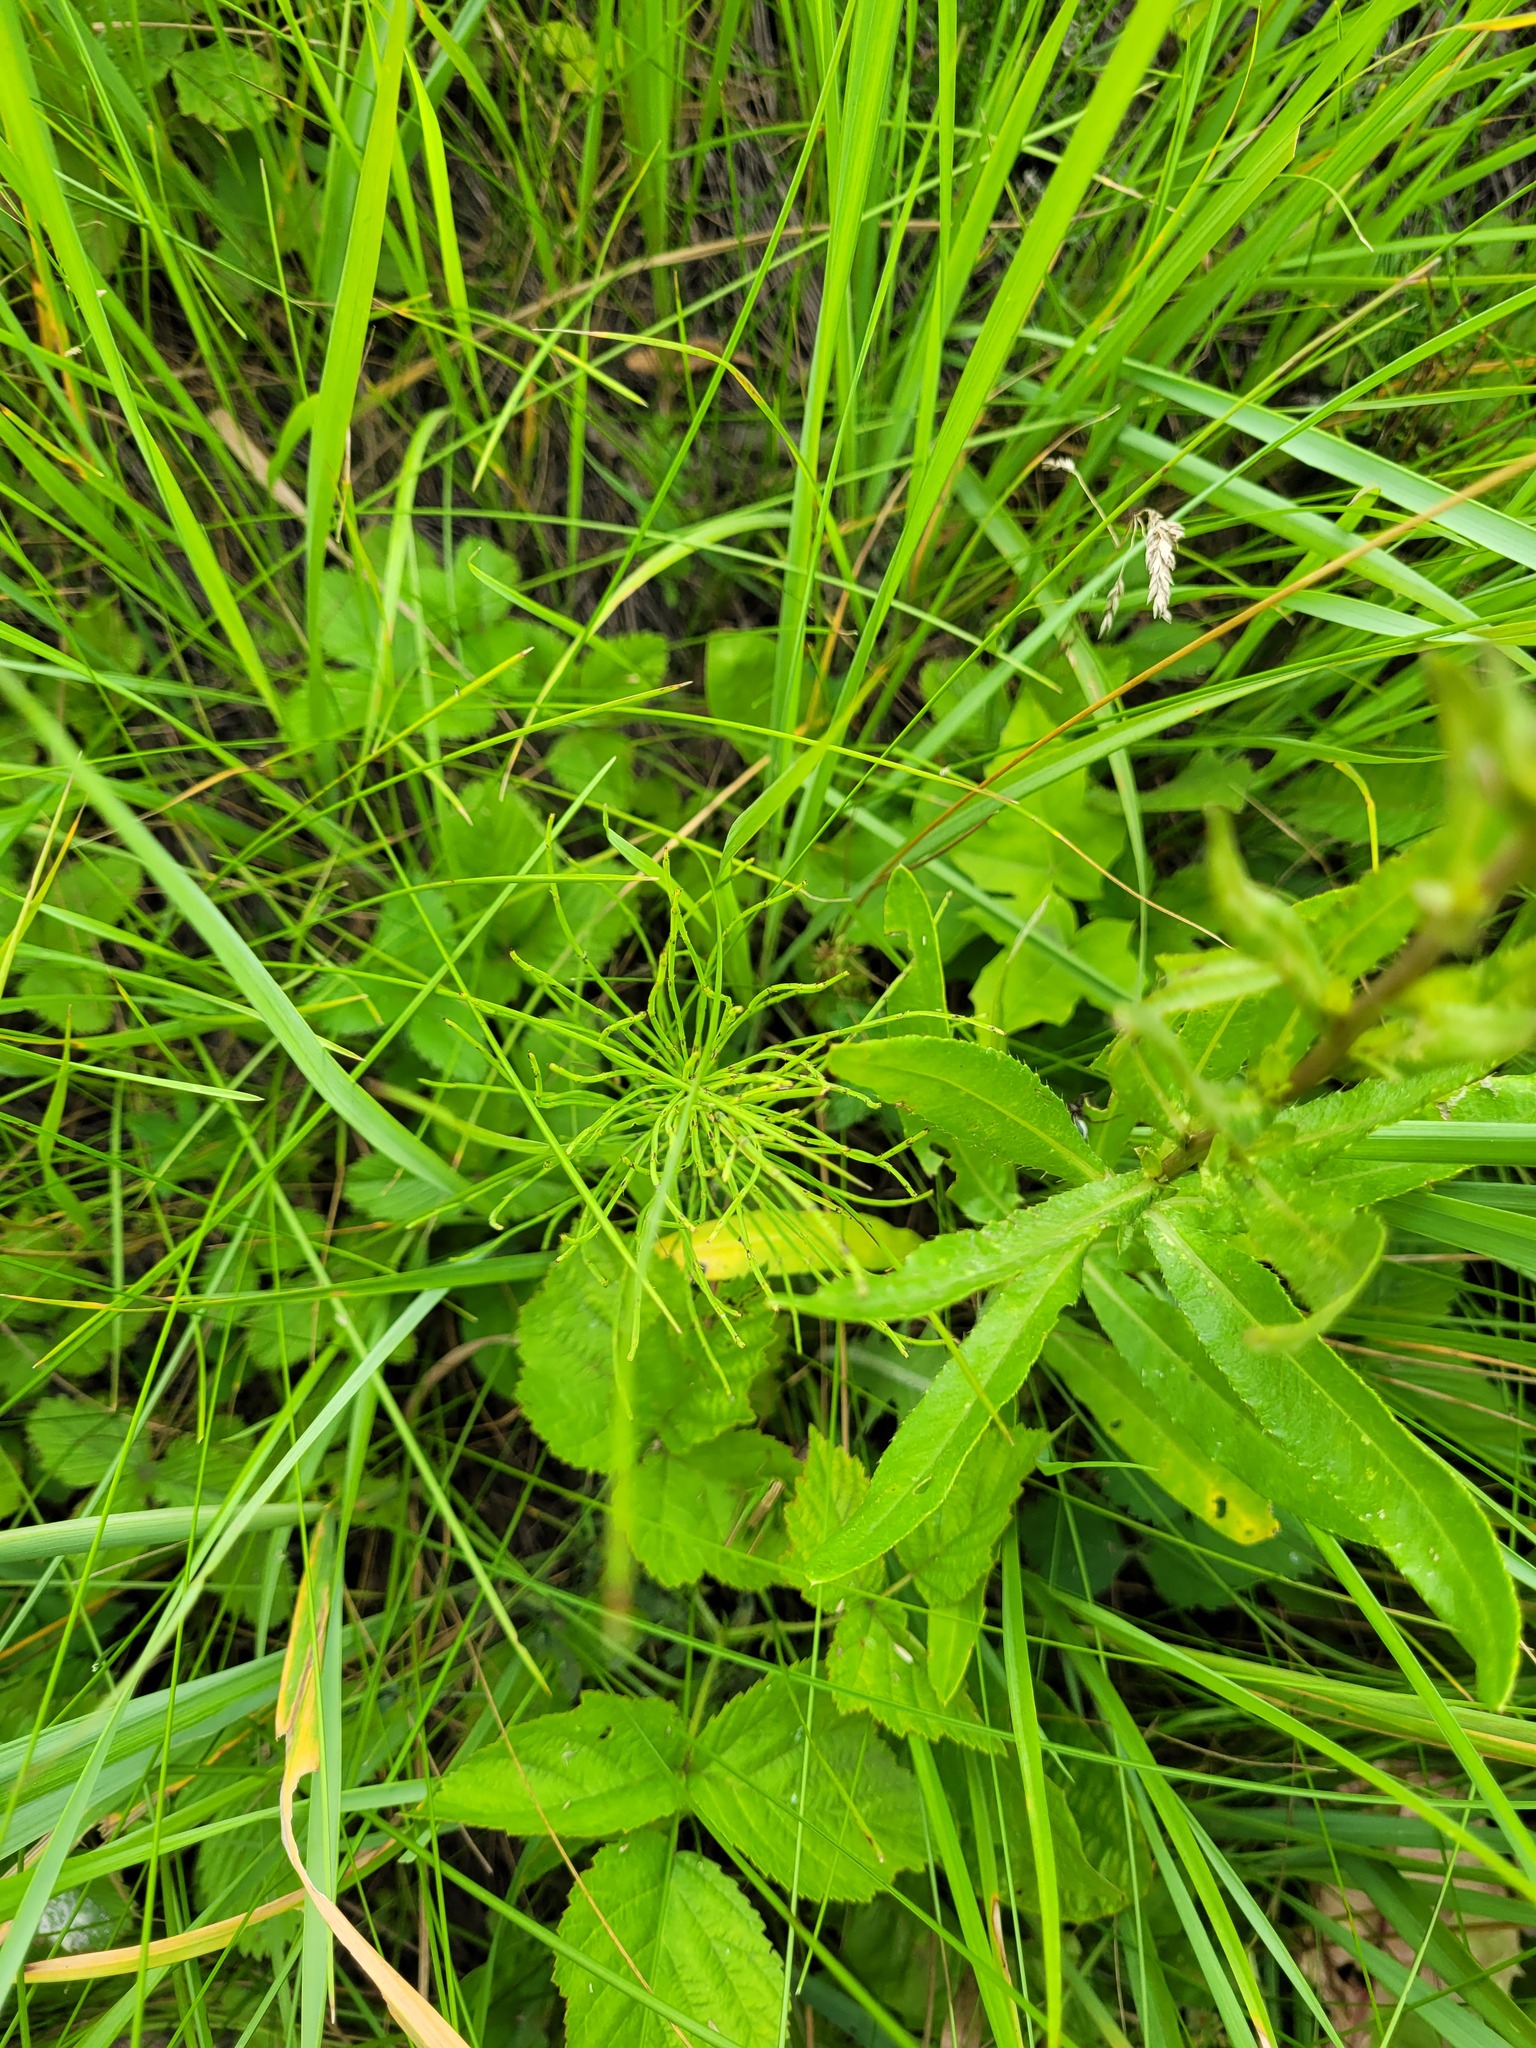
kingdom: Plantae
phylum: Tracheophyta
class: Polypodiopsida
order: Equisetales
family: Equisetaceae
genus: Equisetum
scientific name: Equisetum arvense
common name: Field horsetail
